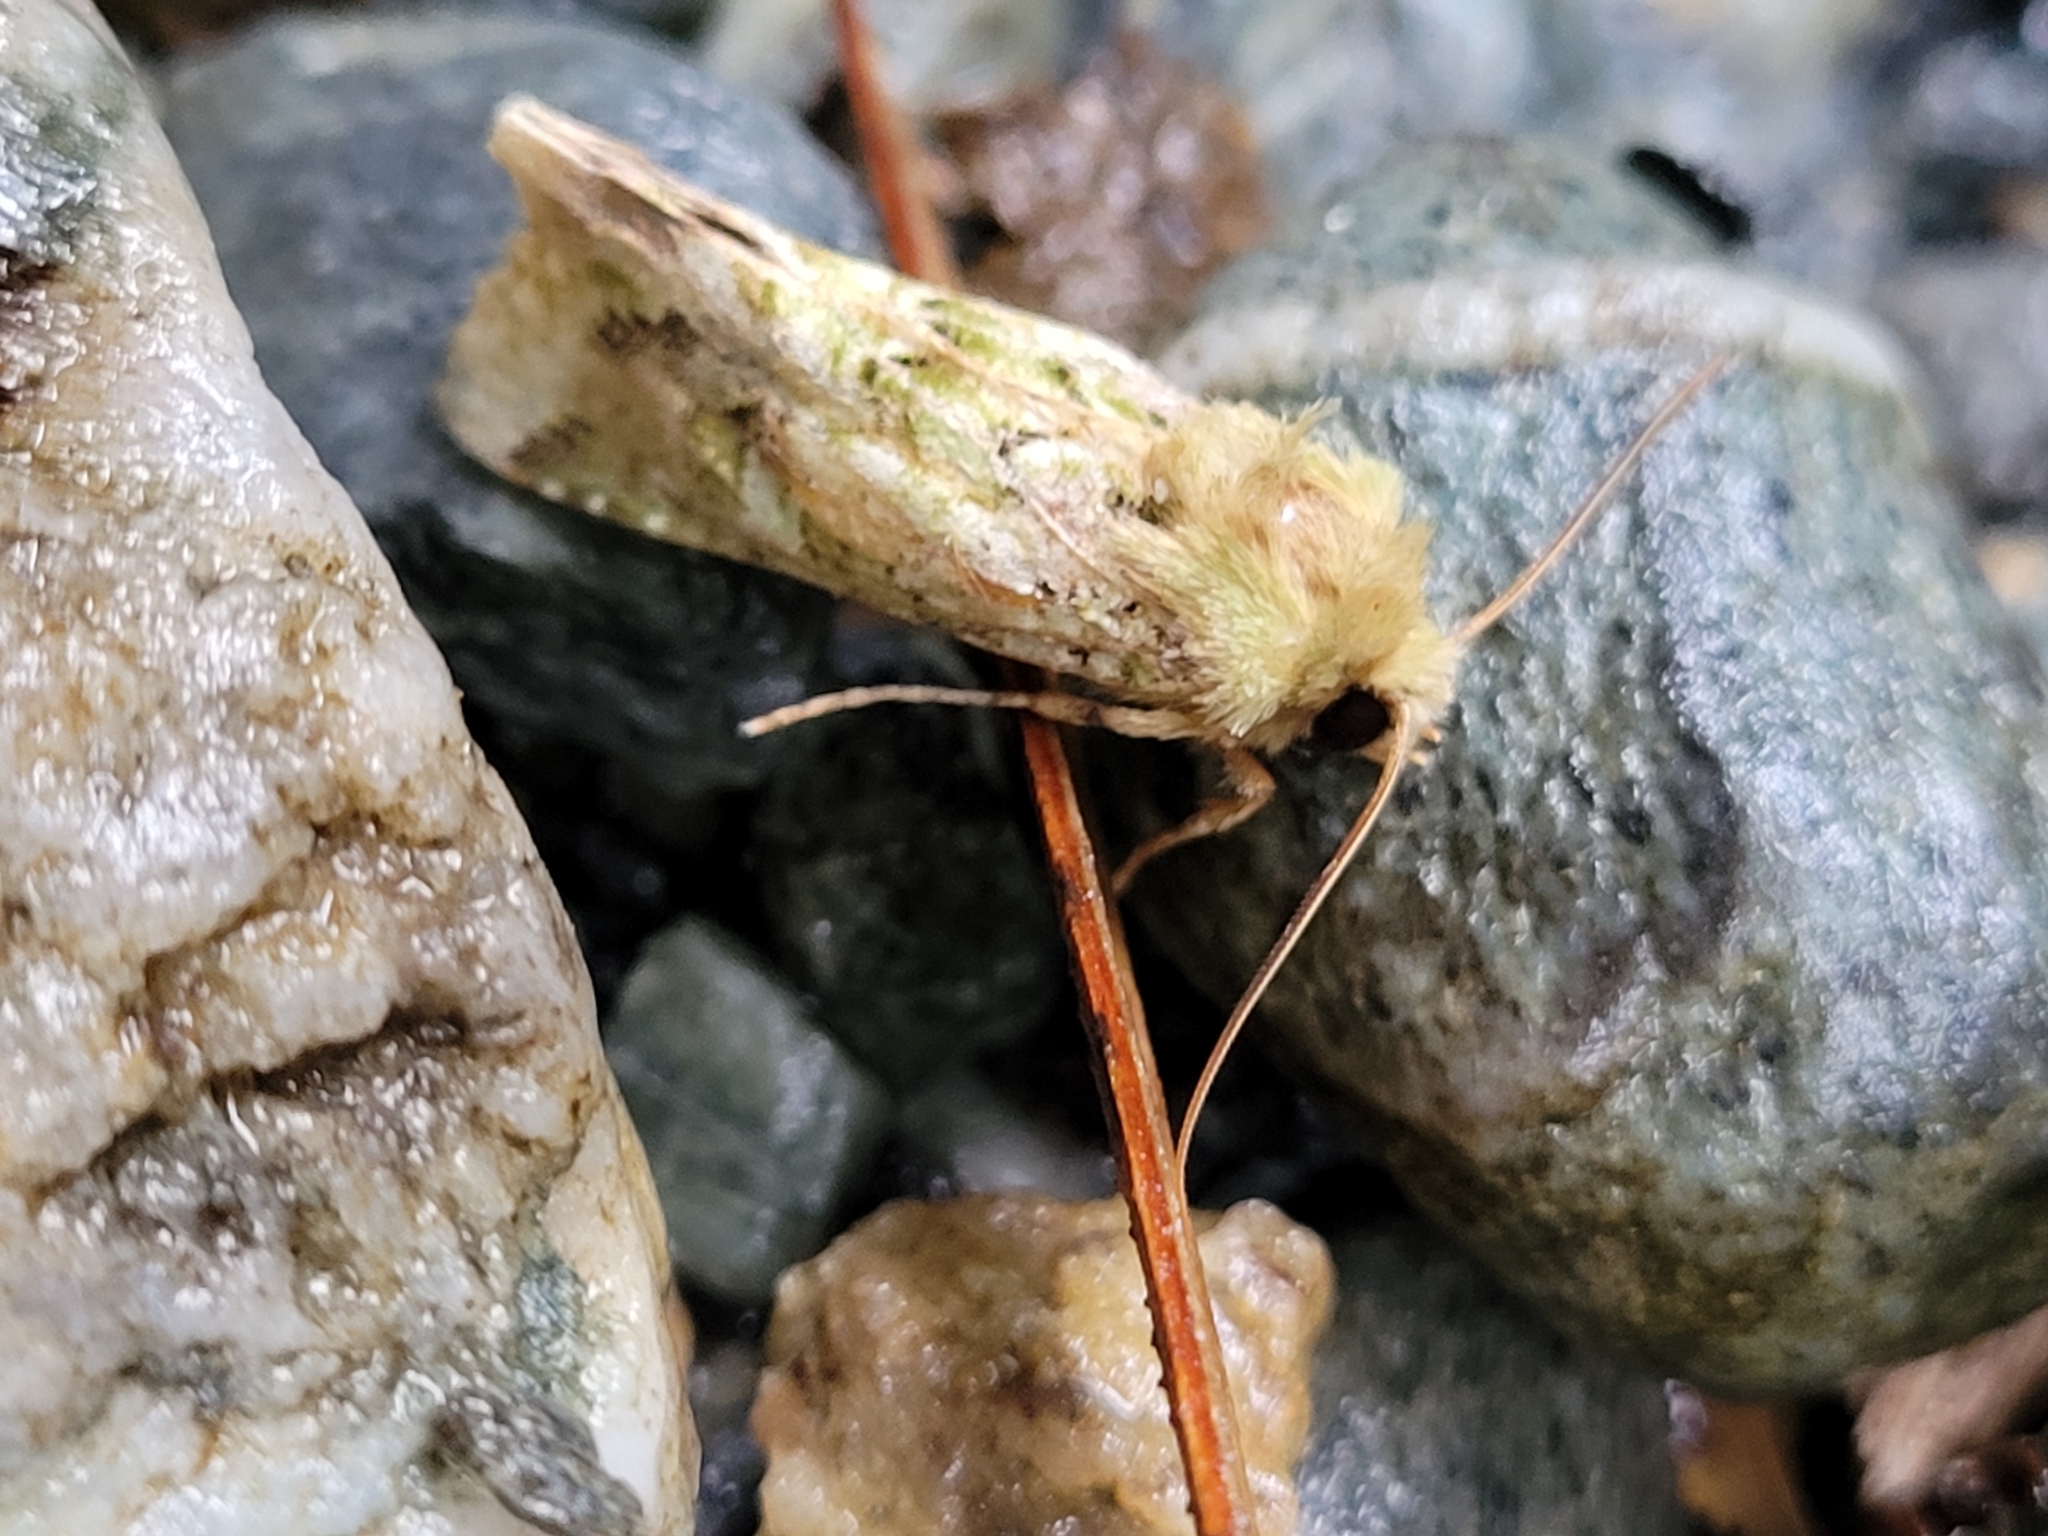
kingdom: Animalia
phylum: Arthropoda
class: Insecta
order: Lepidoptera
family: Noctuidae
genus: Feredayia
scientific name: Feredayia grammosa
